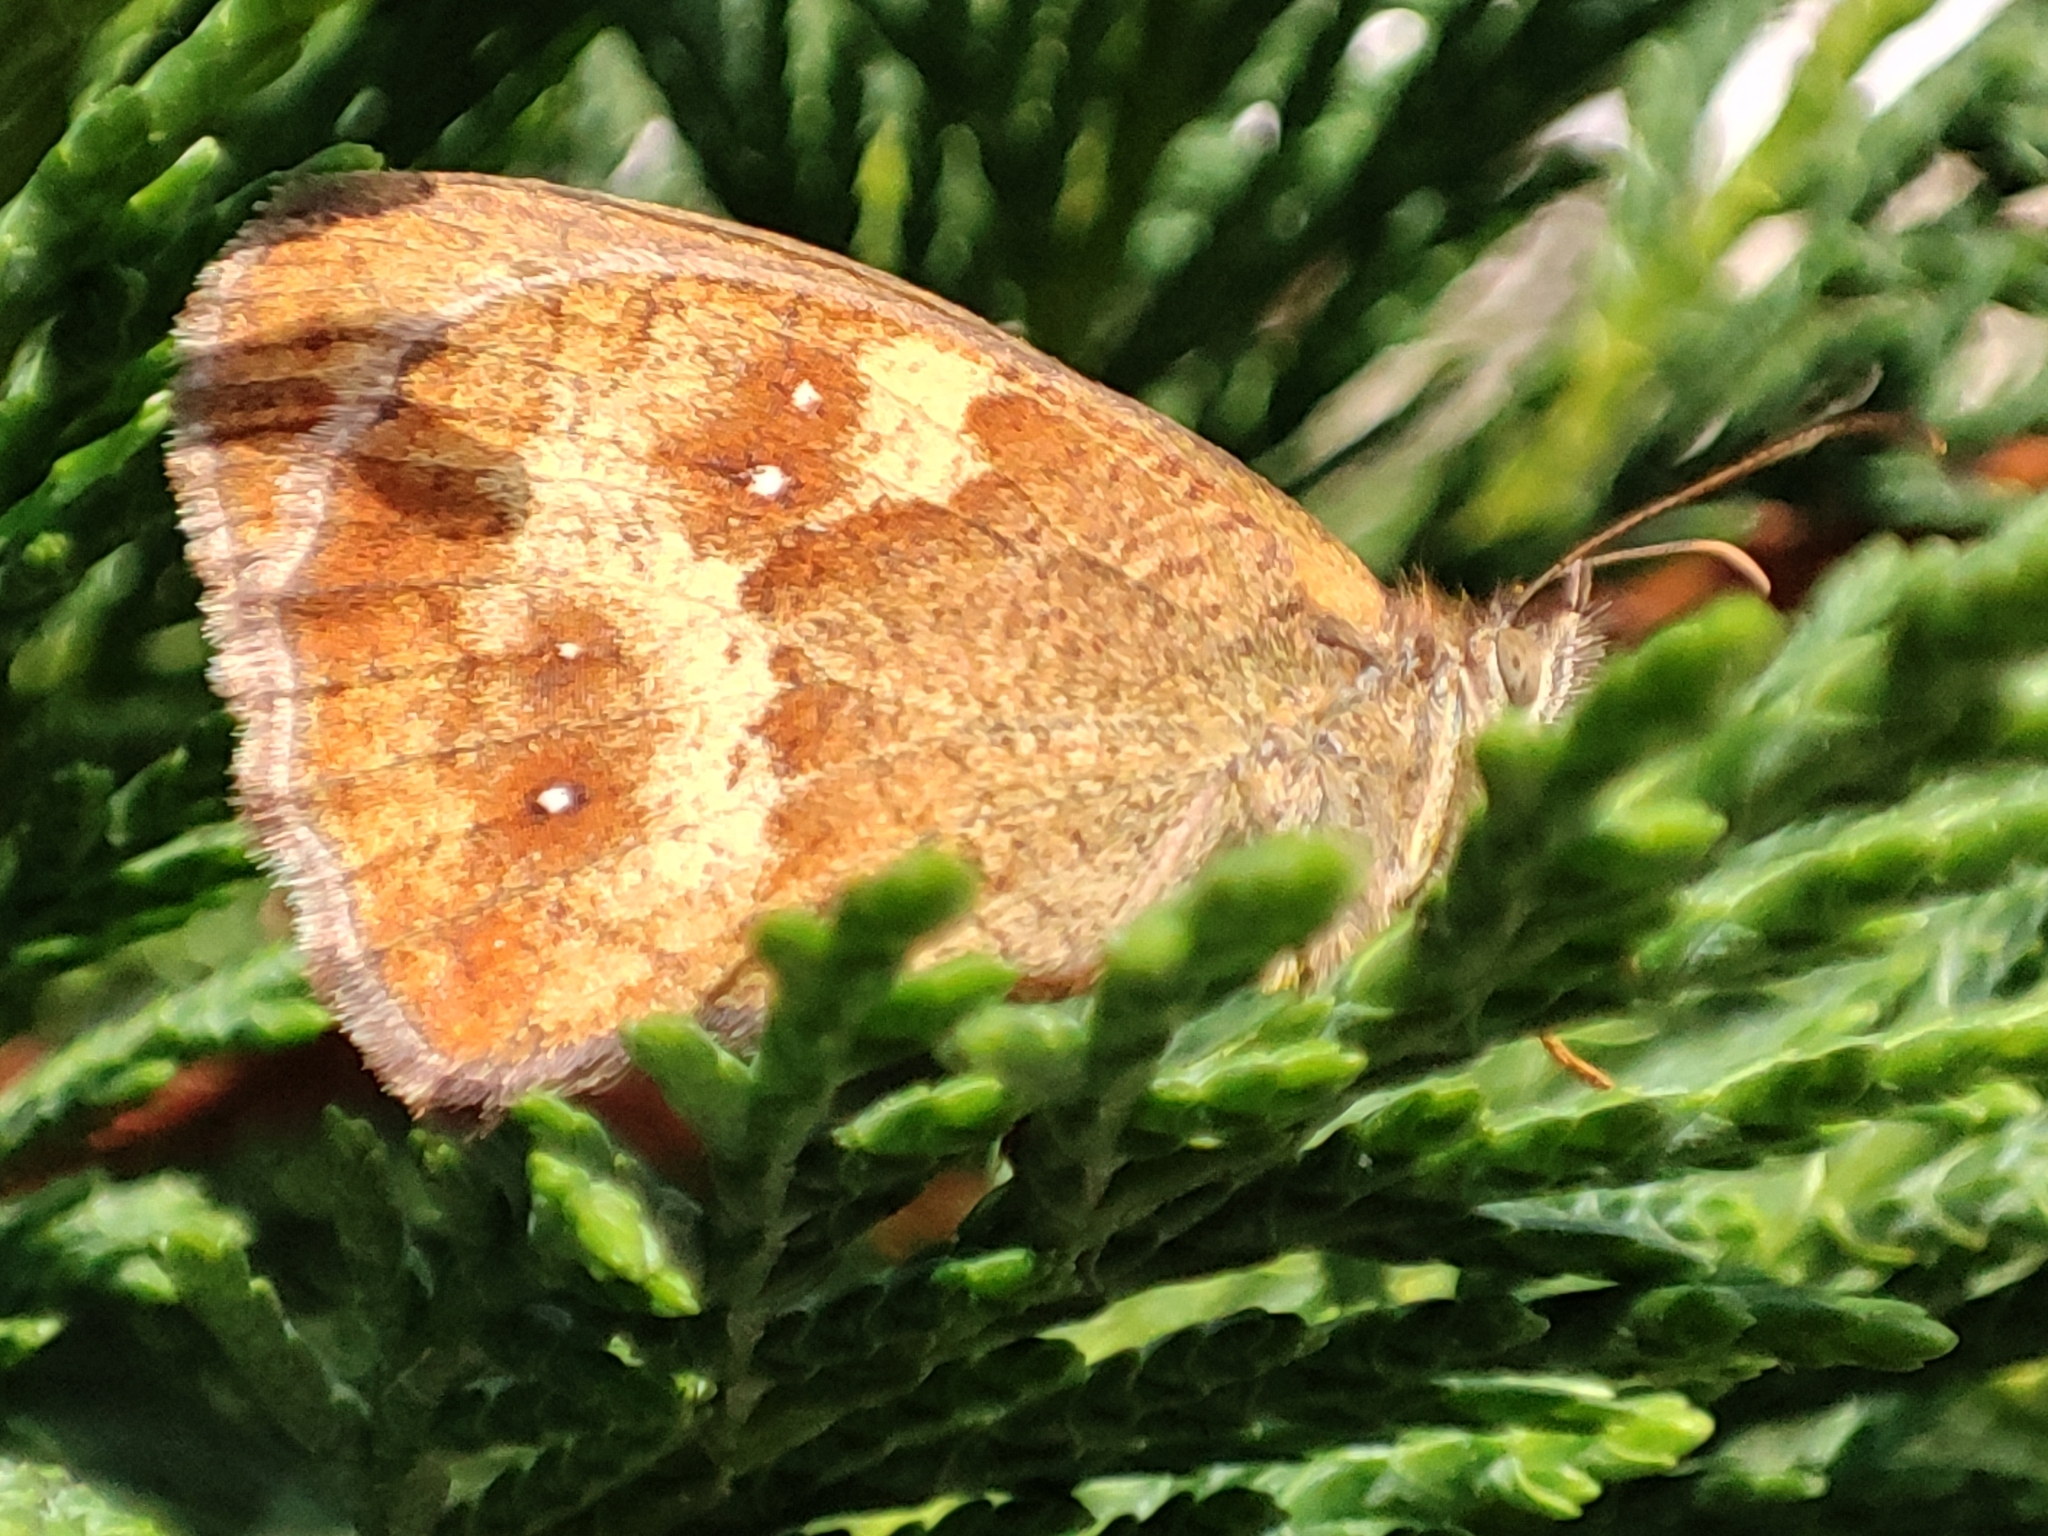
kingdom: Animalia
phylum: Arthropoda
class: Insecta
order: Lepidoptera
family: Nymphalidae
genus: Pyronia
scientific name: Pyronia tithonus
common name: Gatekeeper
